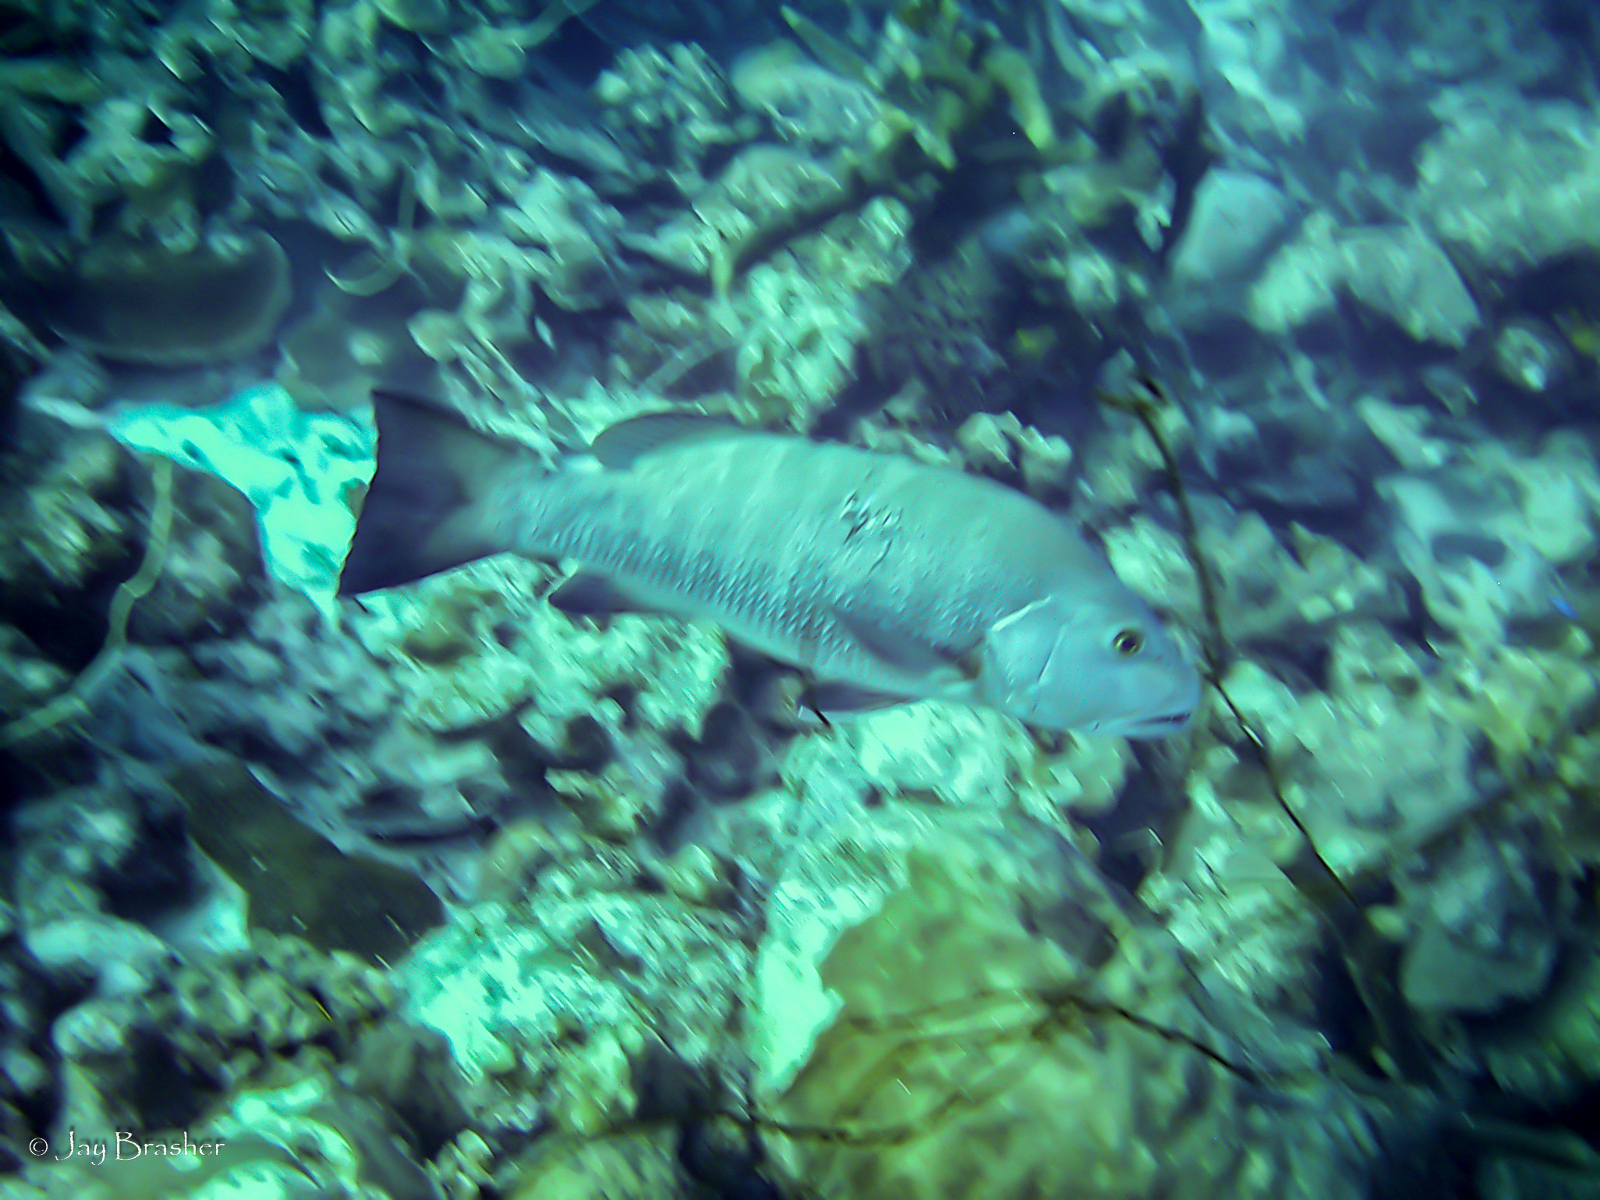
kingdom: Animalia
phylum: Chordata
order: Perciformes
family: Lutjanidae
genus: Lutjanus
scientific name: Lutjanus cyanopterus
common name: Cubera snapper
